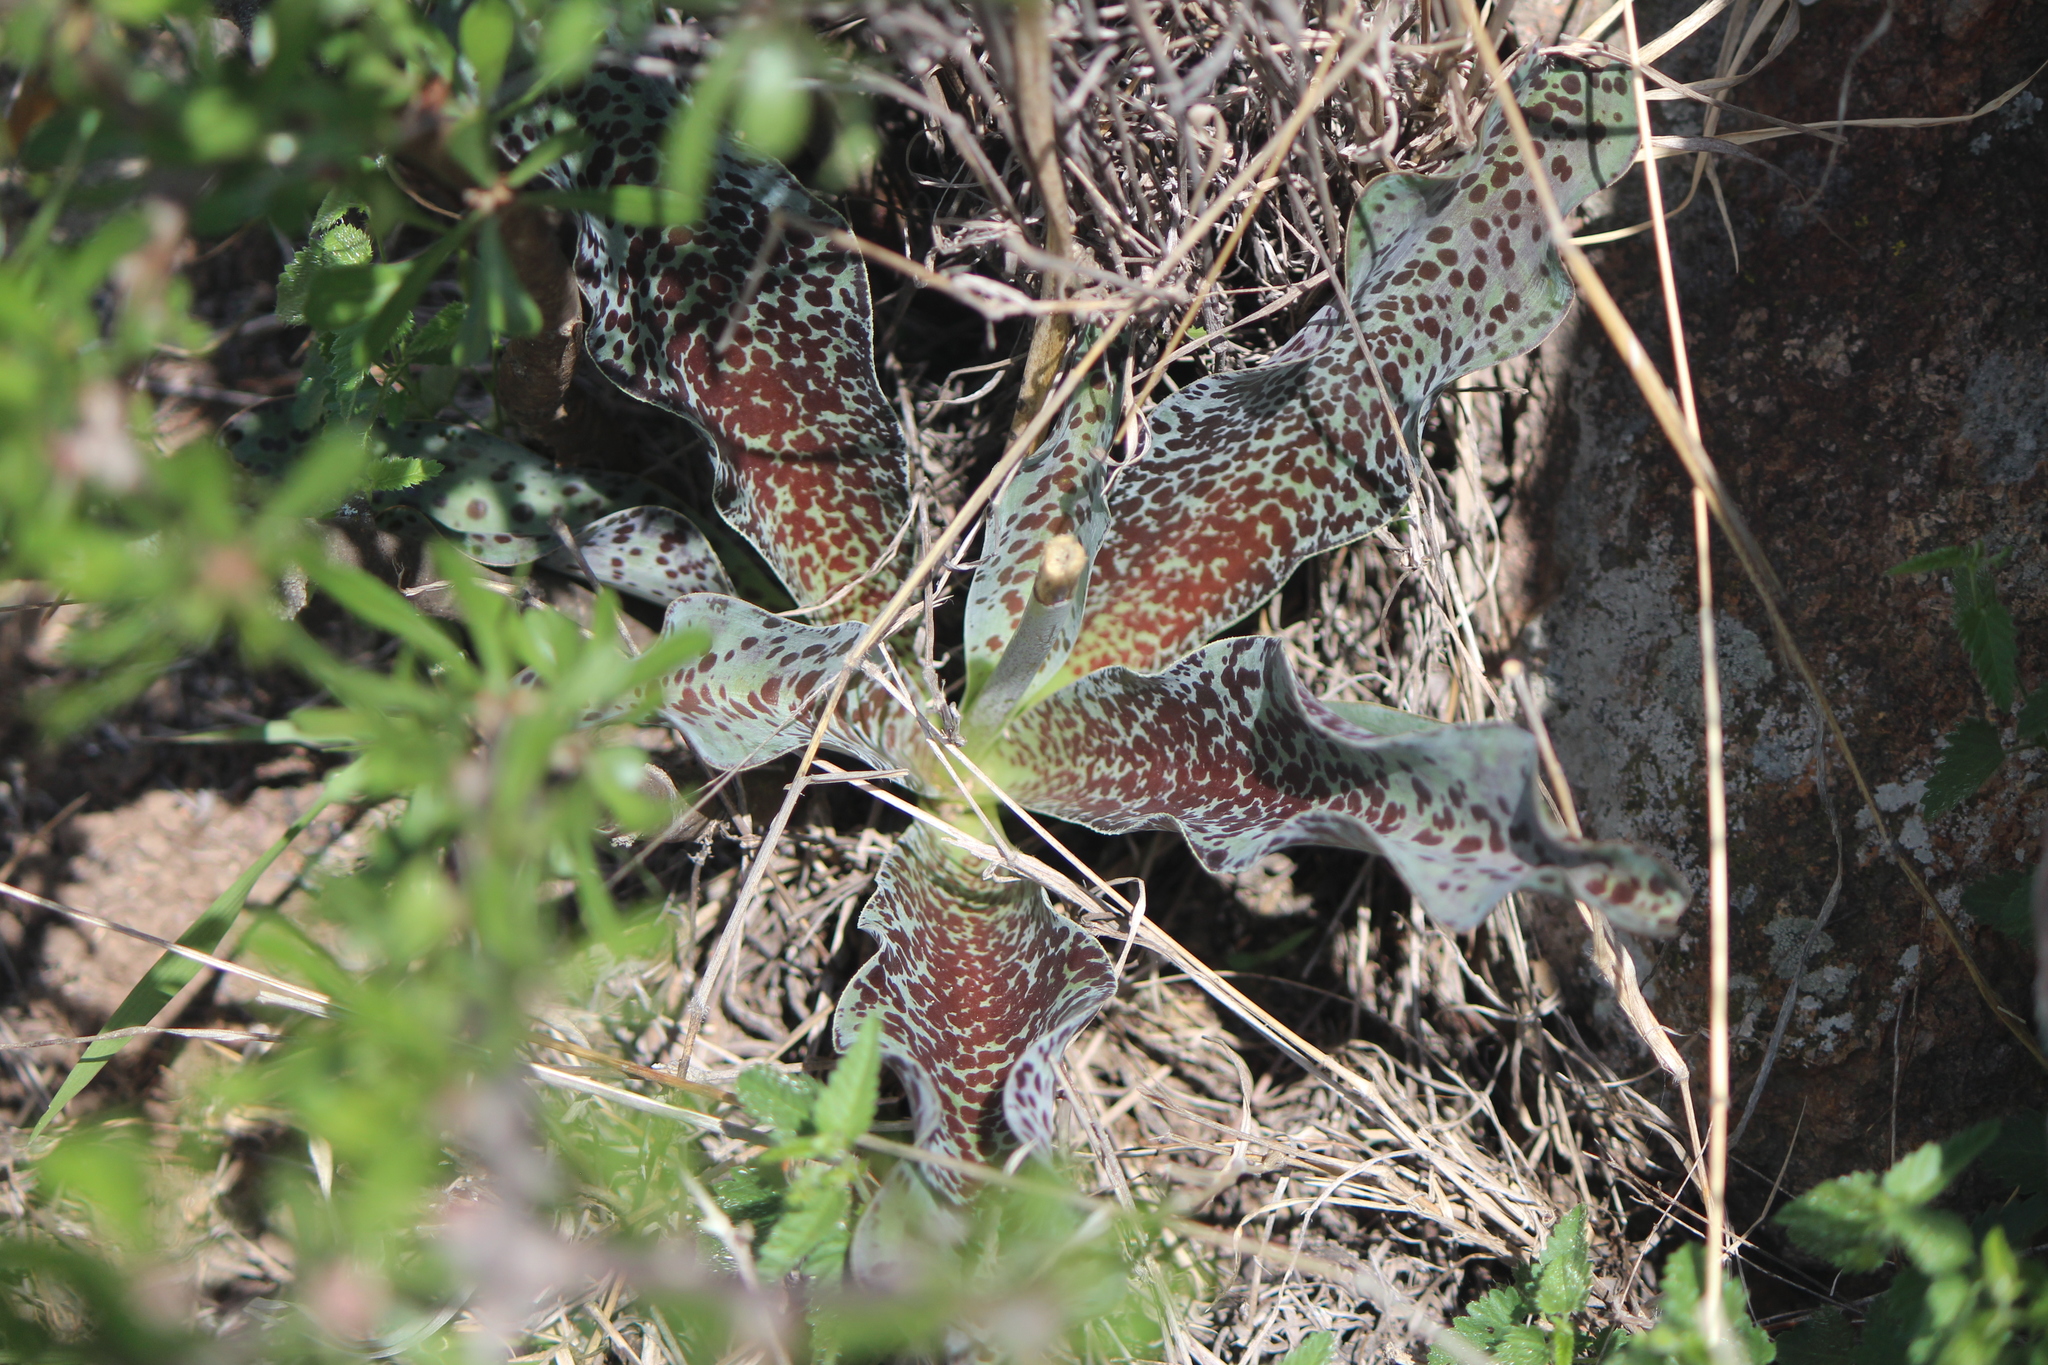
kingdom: Plantae
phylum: Tracheophyta
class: Liliopsida
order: Asparagales
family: Asparagaceae
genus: Agave
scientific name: Agave maculata
